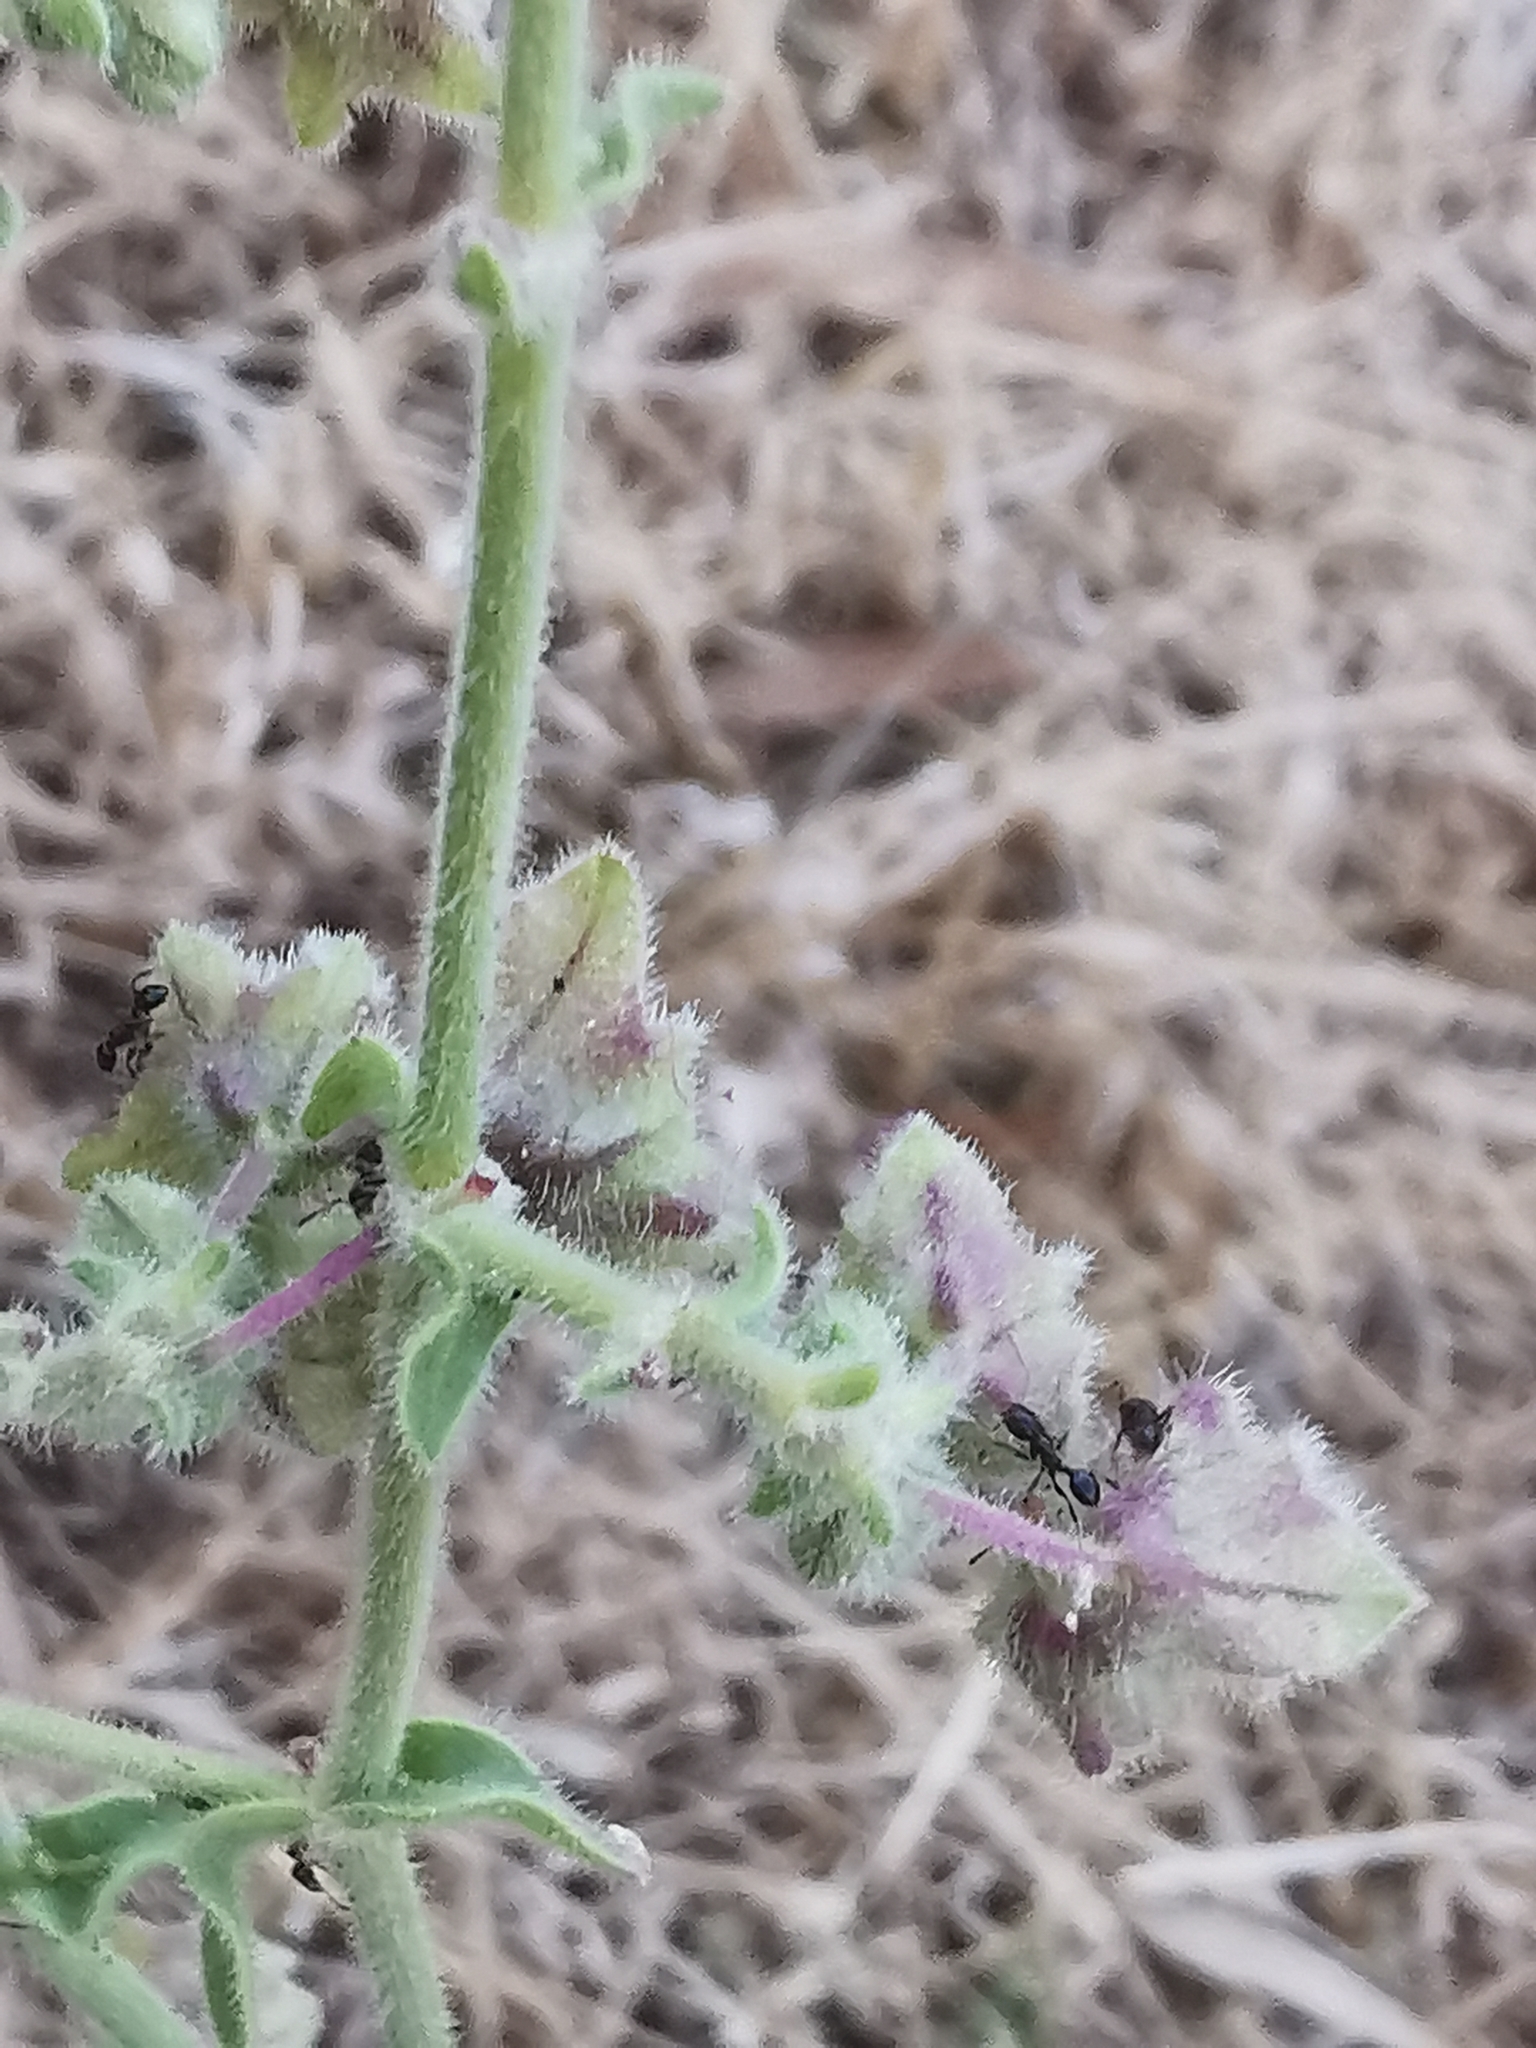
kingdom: Plantae
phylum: Tracheophyta
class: Magnoliopsida
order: Caryophyllales
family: Nyctaginaceae
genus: Mirabilis
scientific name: Mirabilis albida
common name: Hairy four-o'clock
